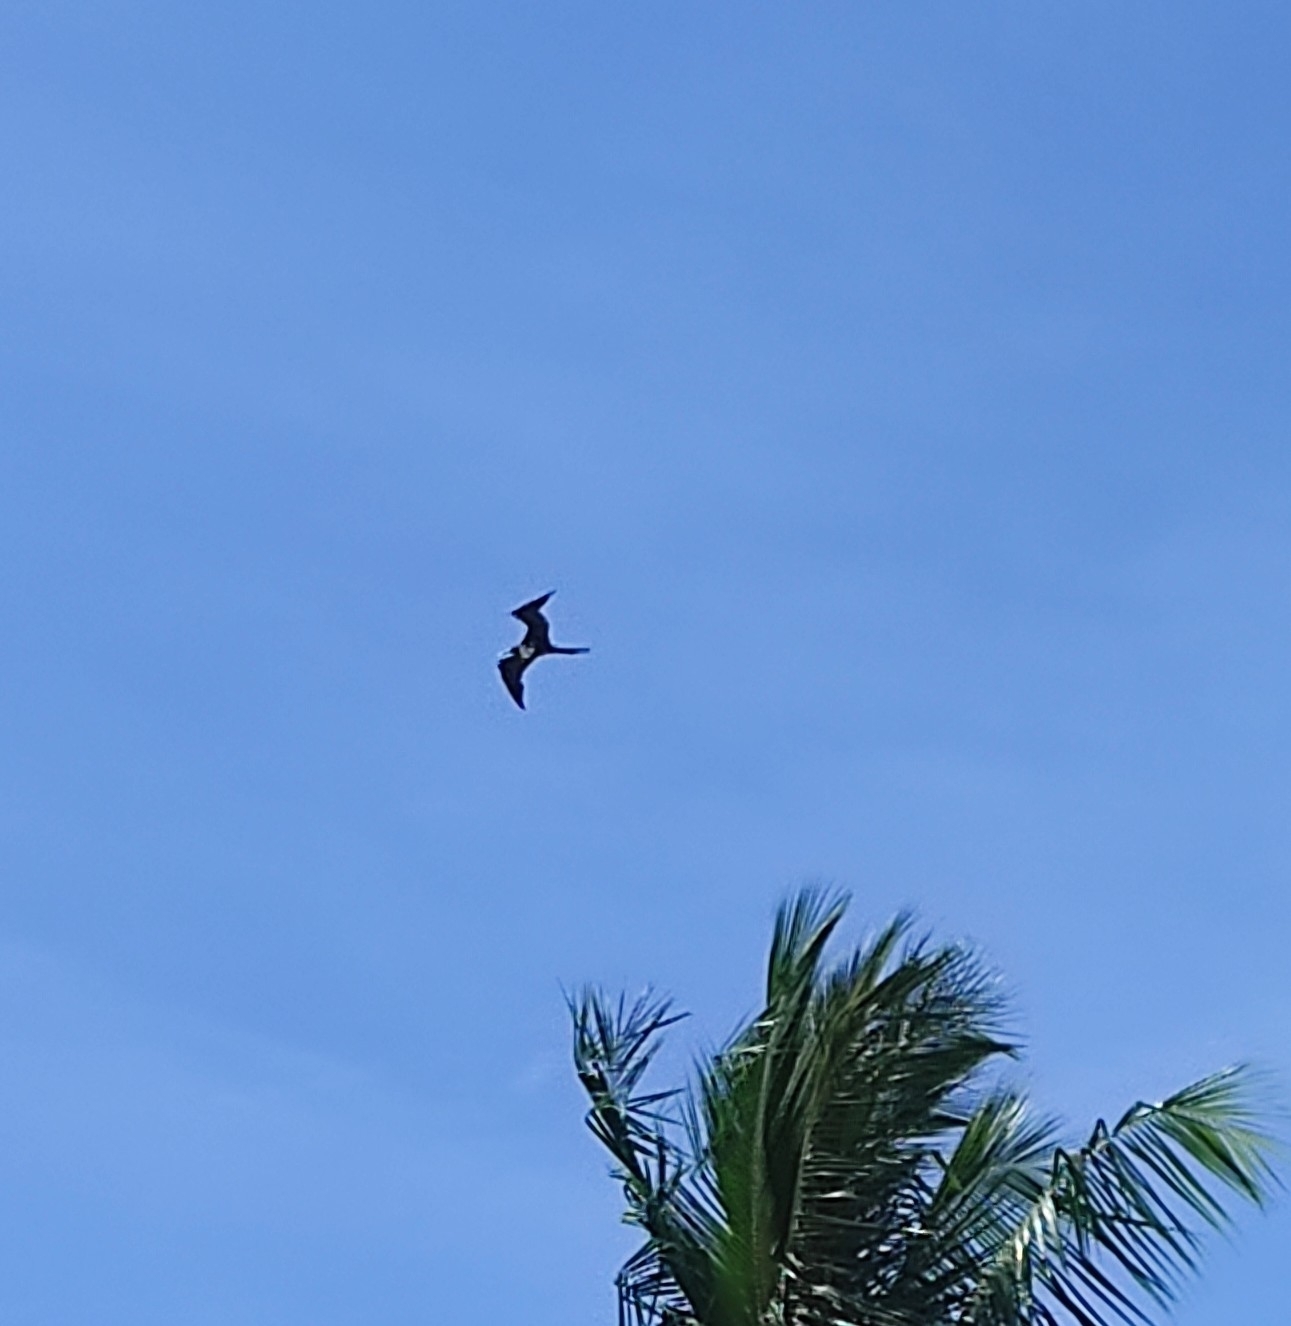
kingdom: Animalia
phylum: Chordata
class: Aves
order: Suliformes
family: Fregatidae
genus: Fregata
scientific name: Fregata magnificens
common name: Magnificent frigatebird
